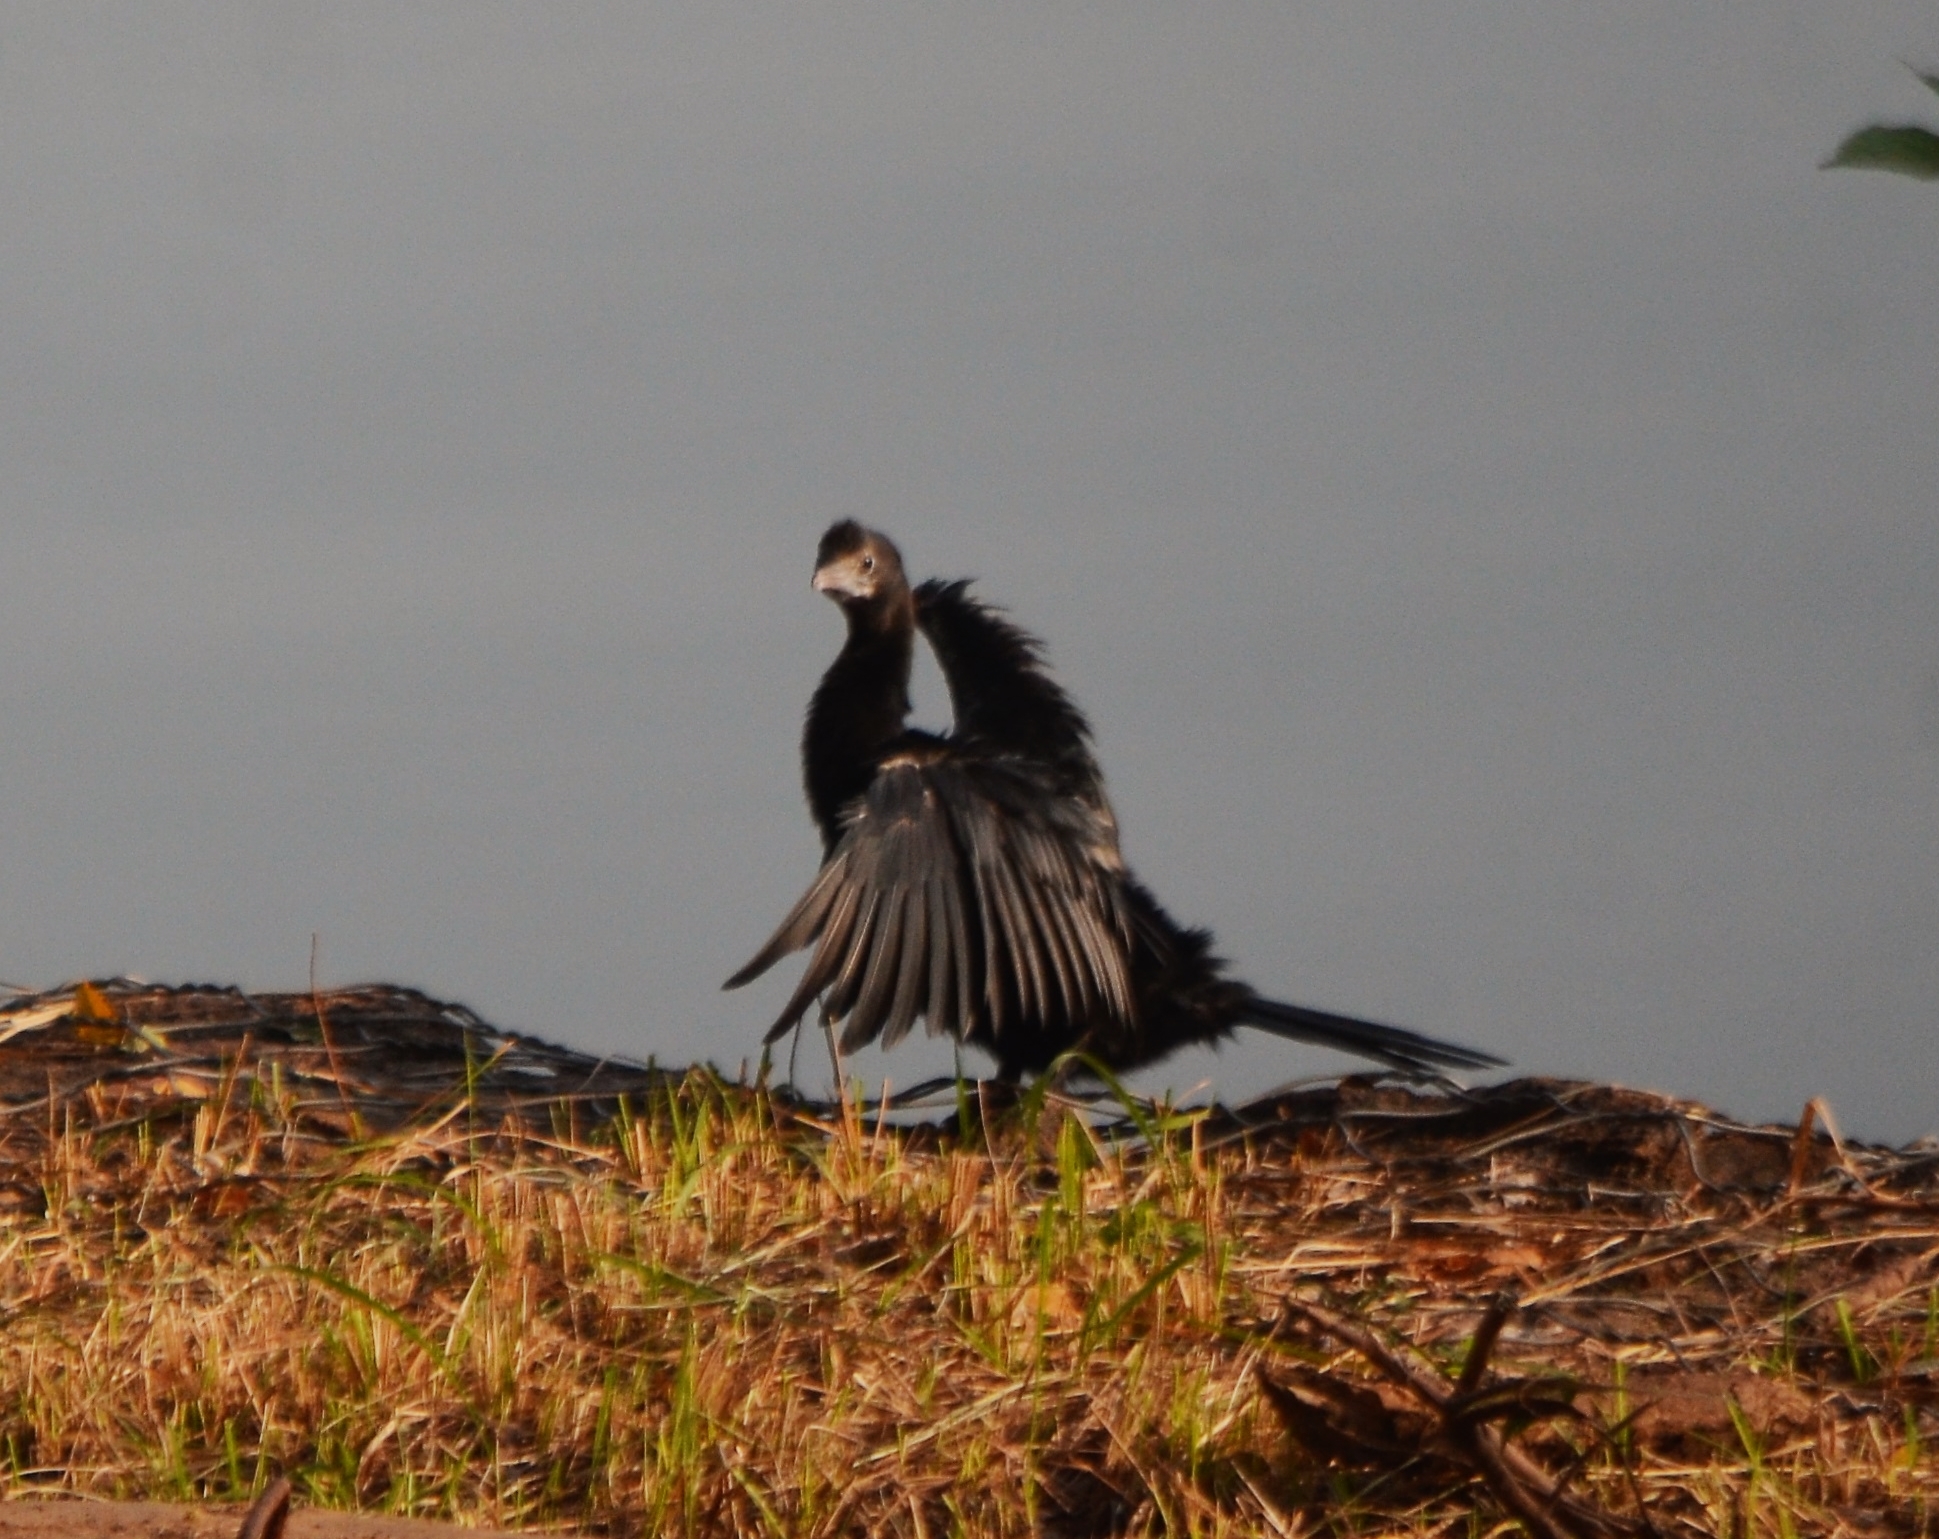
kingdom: Animalia
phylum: Chordata
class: Aves
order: Suliformes
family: Phalacrocoracidae
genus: Microcarbo
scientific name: Microcarbo niger
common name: Little cormorant
